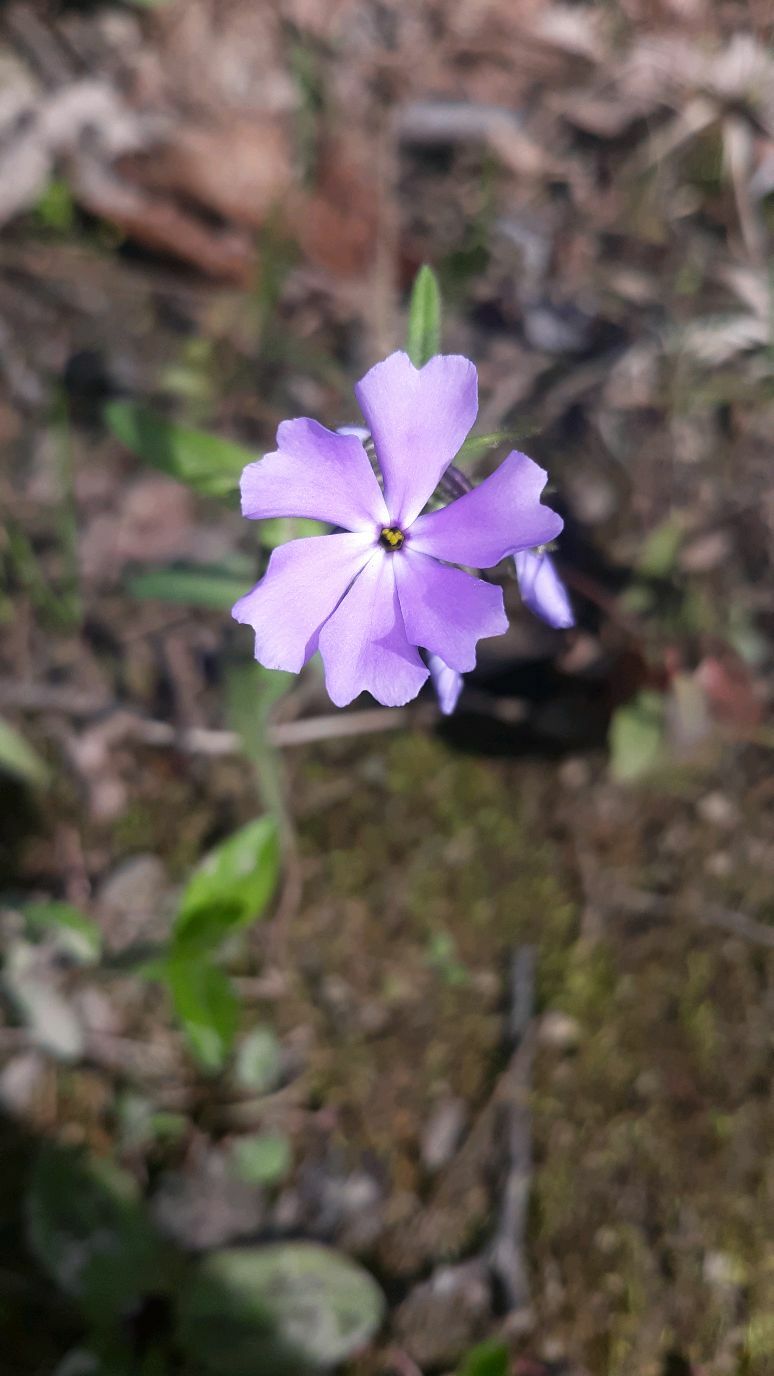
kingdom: Plantae
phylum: Tracheophyta
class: Magnoliopsida
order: Ericales
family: Polemoniaceae
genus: Phlox
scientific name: Phlox divaricata
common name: Blue phlox
